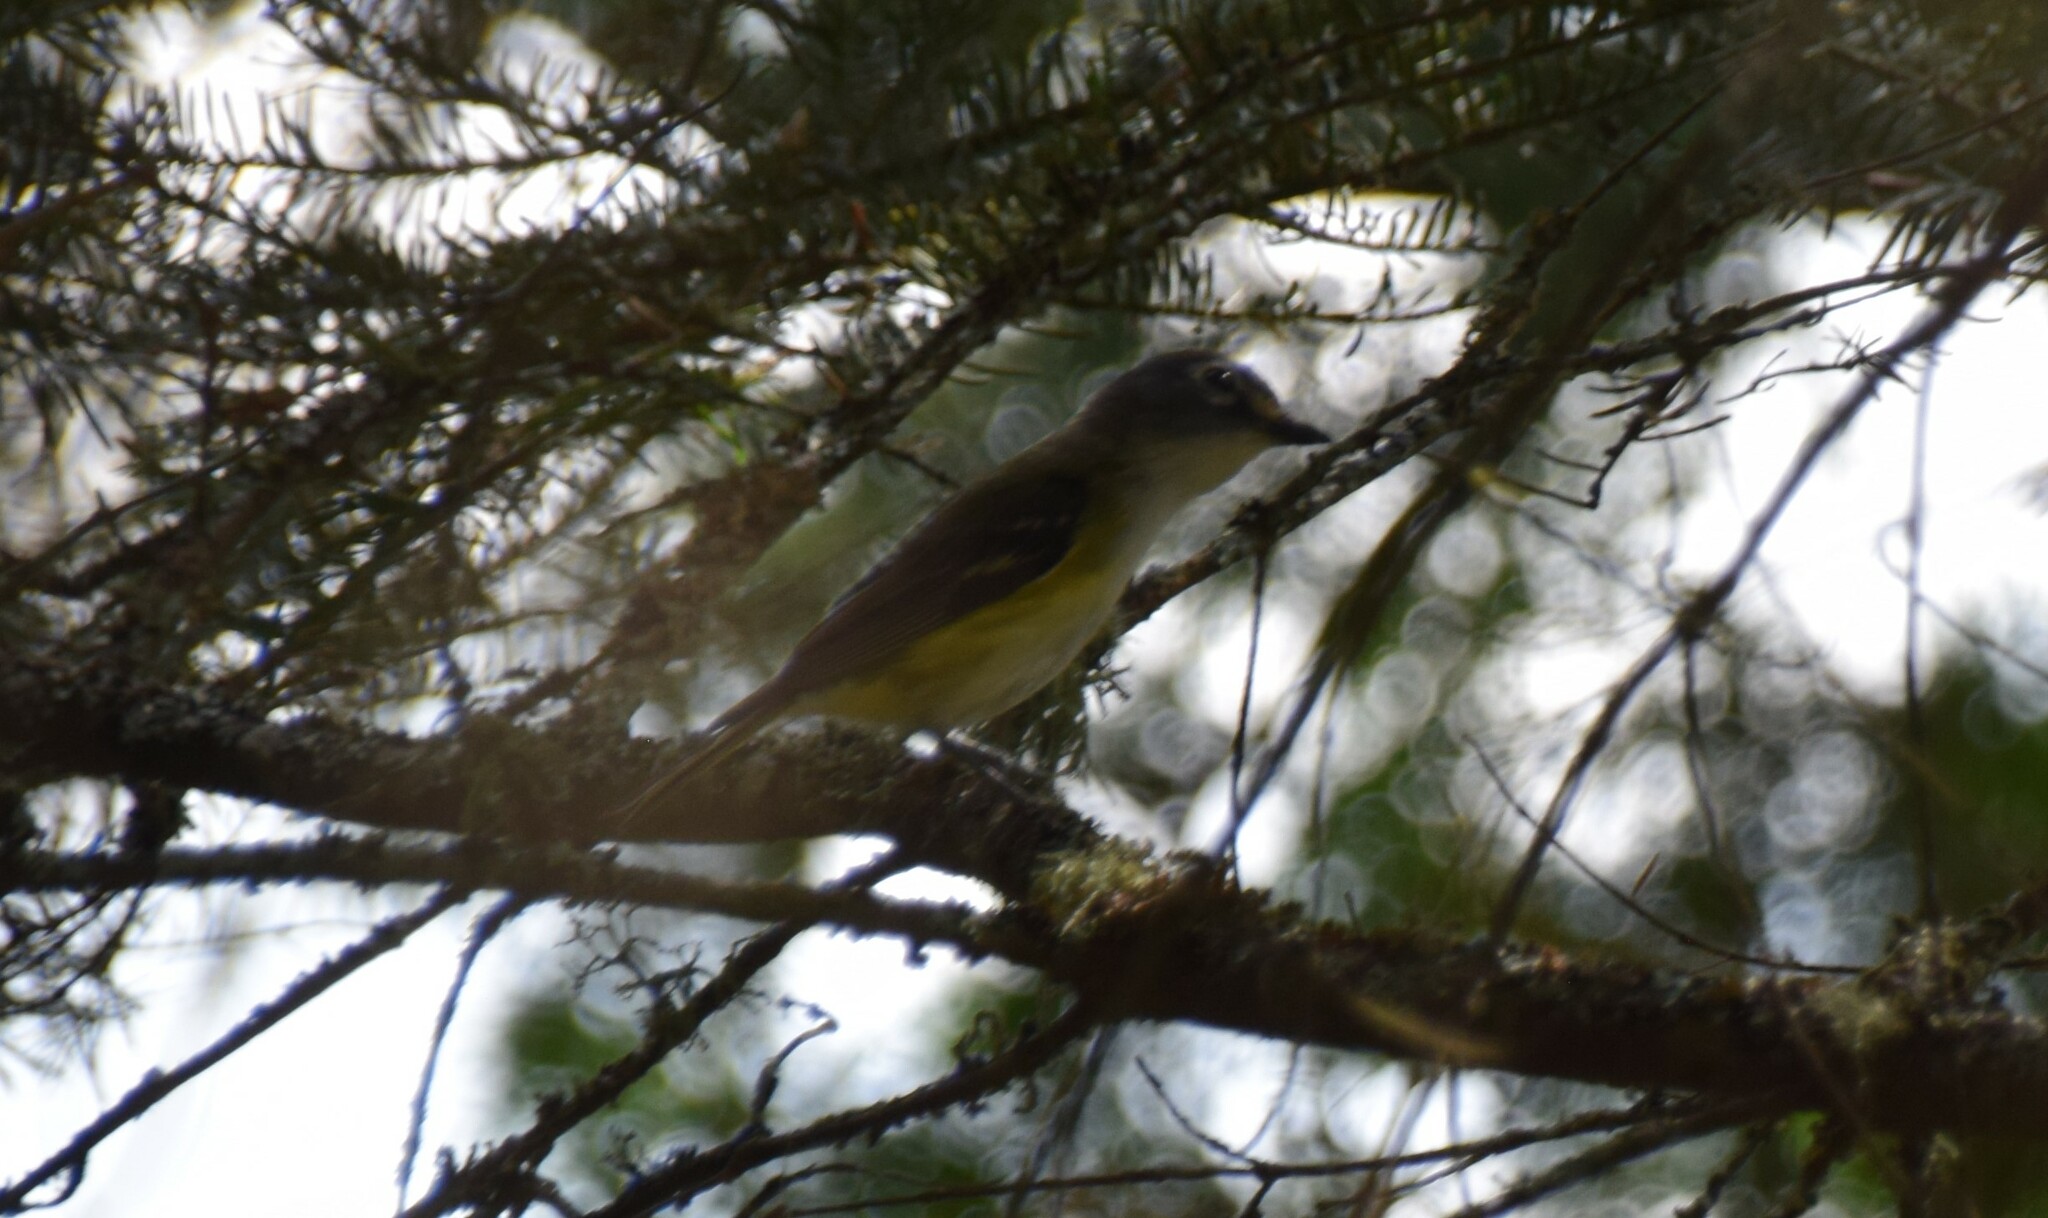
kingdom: Animalia
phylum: Chordata
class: Aves
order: Passeriformes
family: Vireonidae
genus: Vireo
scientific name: Vireo solitarius
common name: Blue-headed vireo
